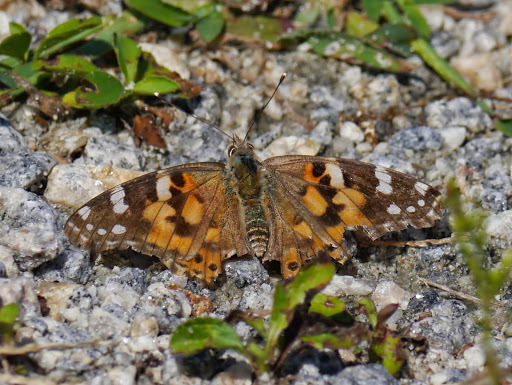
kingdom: Animalia
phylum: Arthropoda
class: Insecta
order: Lepidoptera
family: Nymphalidae
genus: Vanessa
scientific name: Vanessa cardui
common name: Painted lady
